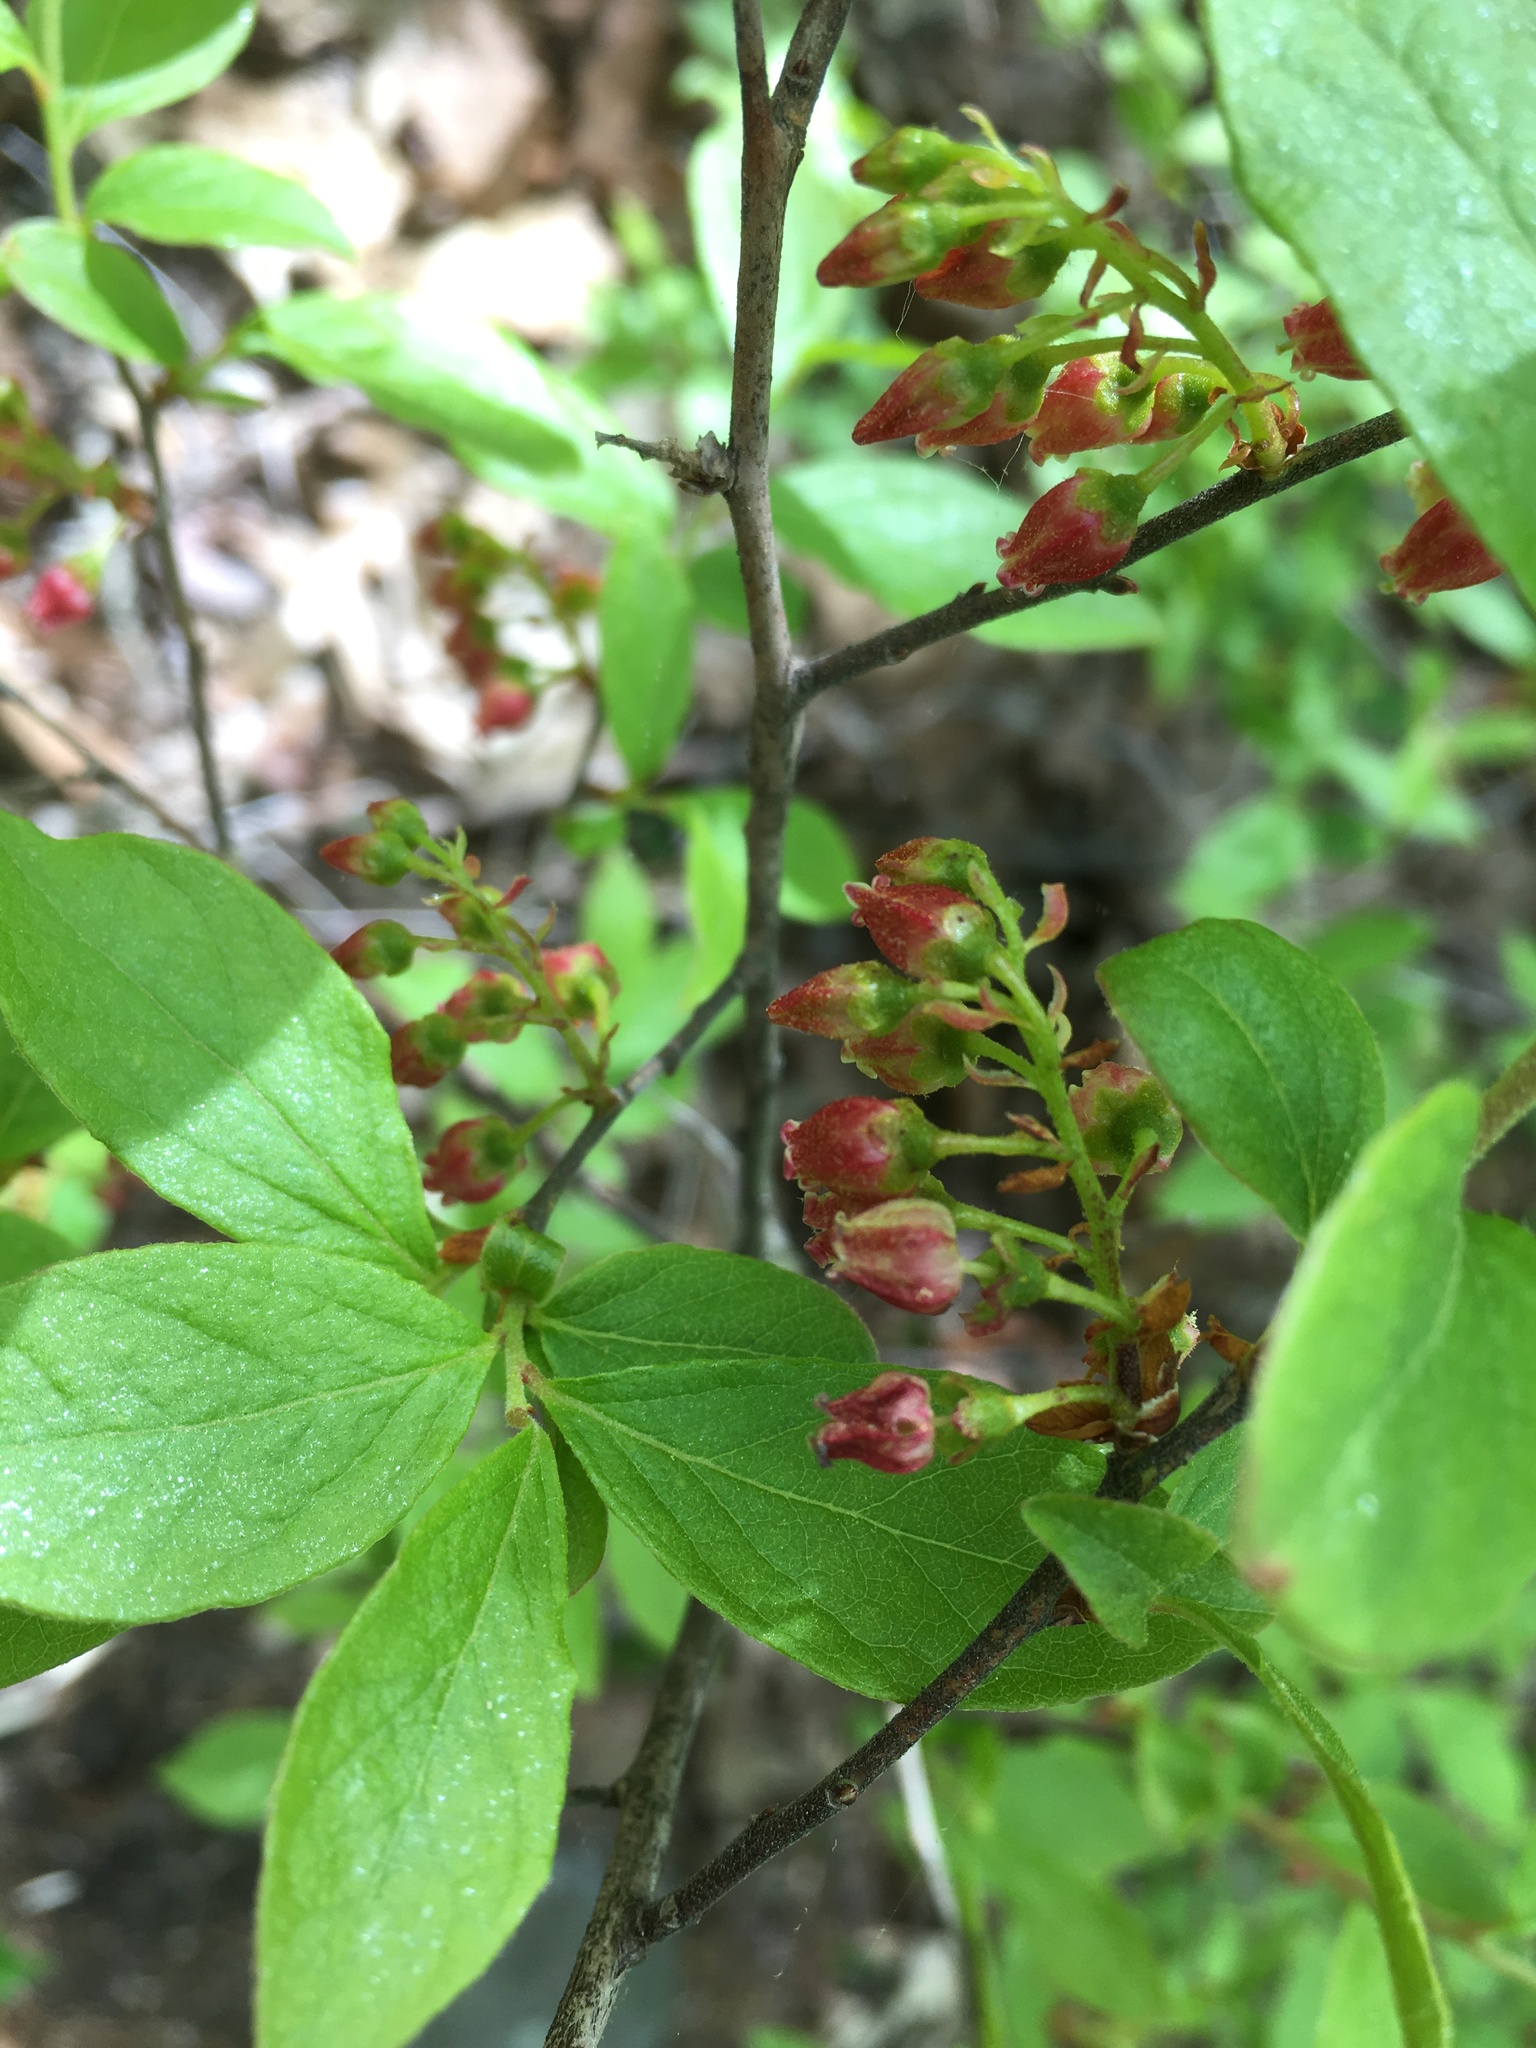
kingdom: Plantae
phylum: Tracheophyta
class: Magnoliopsida
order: Ericales
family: Ericaceae
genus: Gaylussacia
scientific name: Gaylussacia baccata
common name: Black huckleberry
